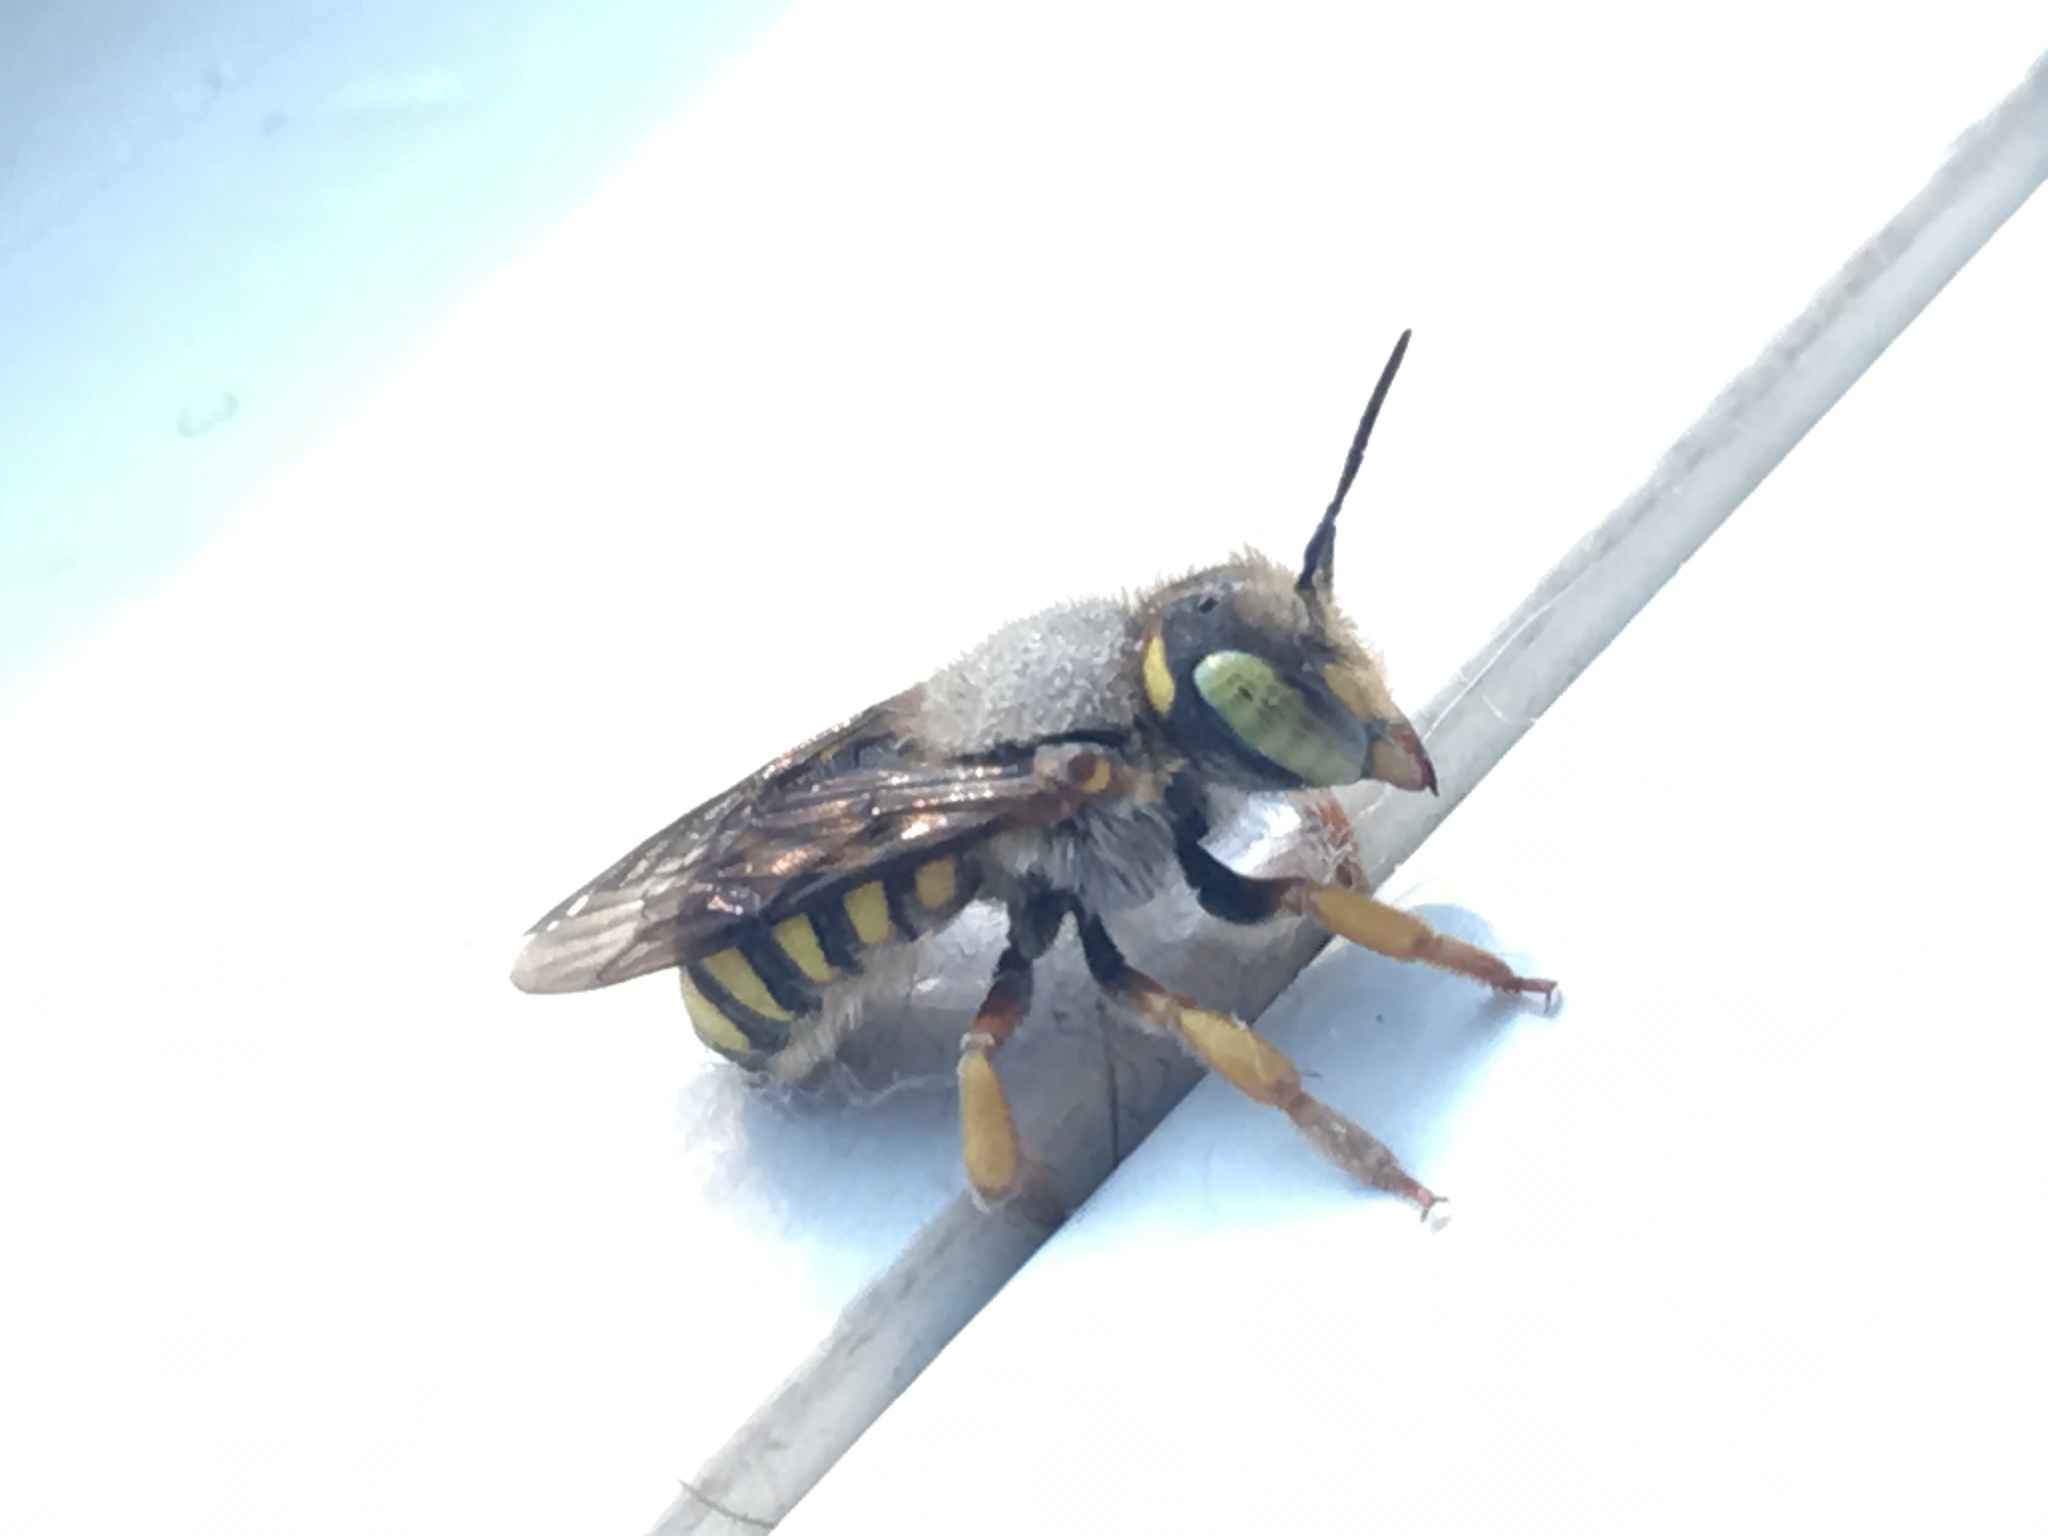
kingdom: Animalia
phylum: Arthropoda
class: Insecta
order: Hymenoptera
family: Megachilidae
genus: Anthidium
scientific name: Anthidium oblongatum
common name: Oblong wool carder bee
